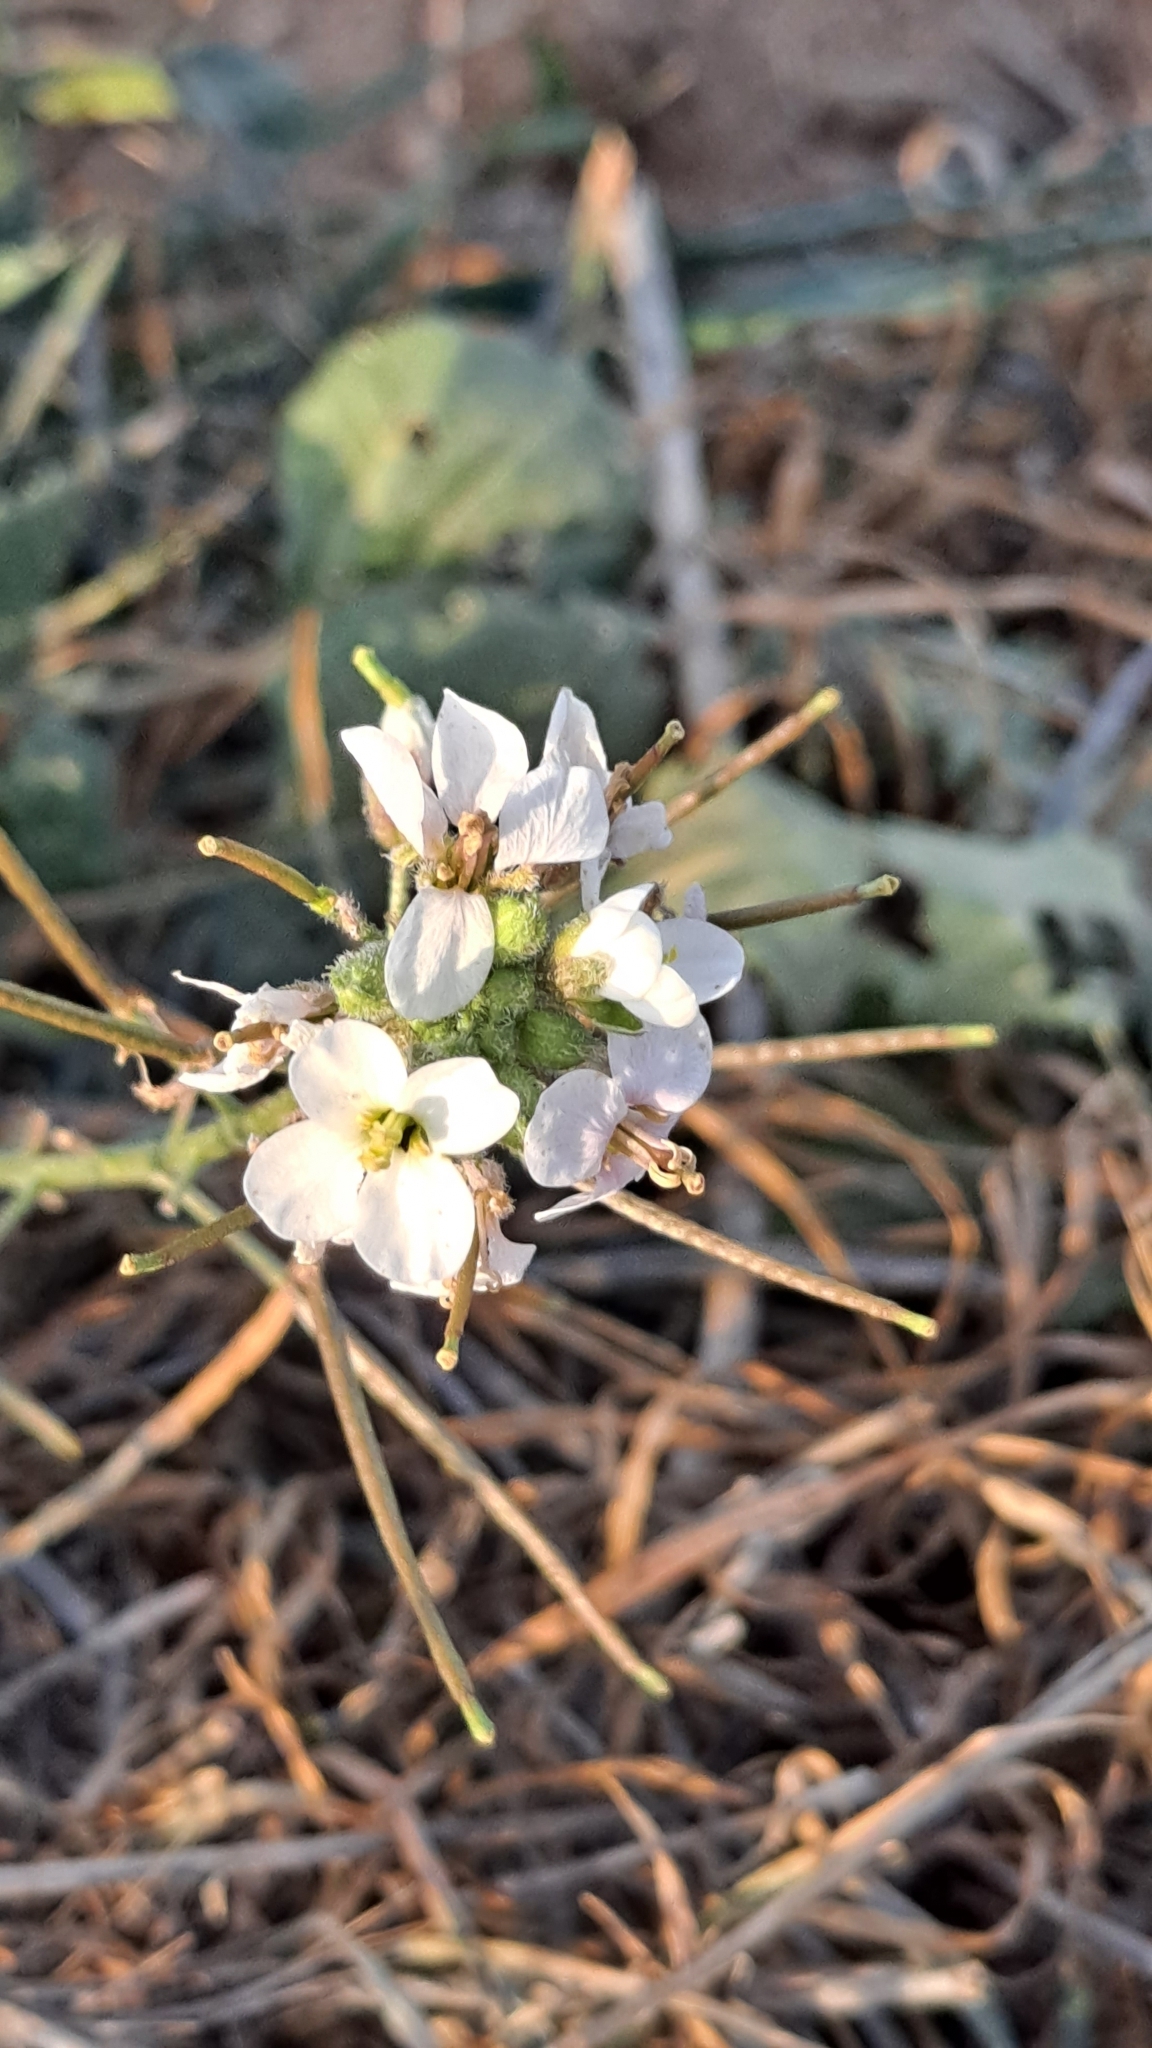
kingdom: Plantae
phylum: Tracheophyta
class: Magnoliopsida
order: Brassicales
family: Brassicaceae
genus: Diplotaxis
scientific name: Diplotaxis erucoides
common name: White rocket
